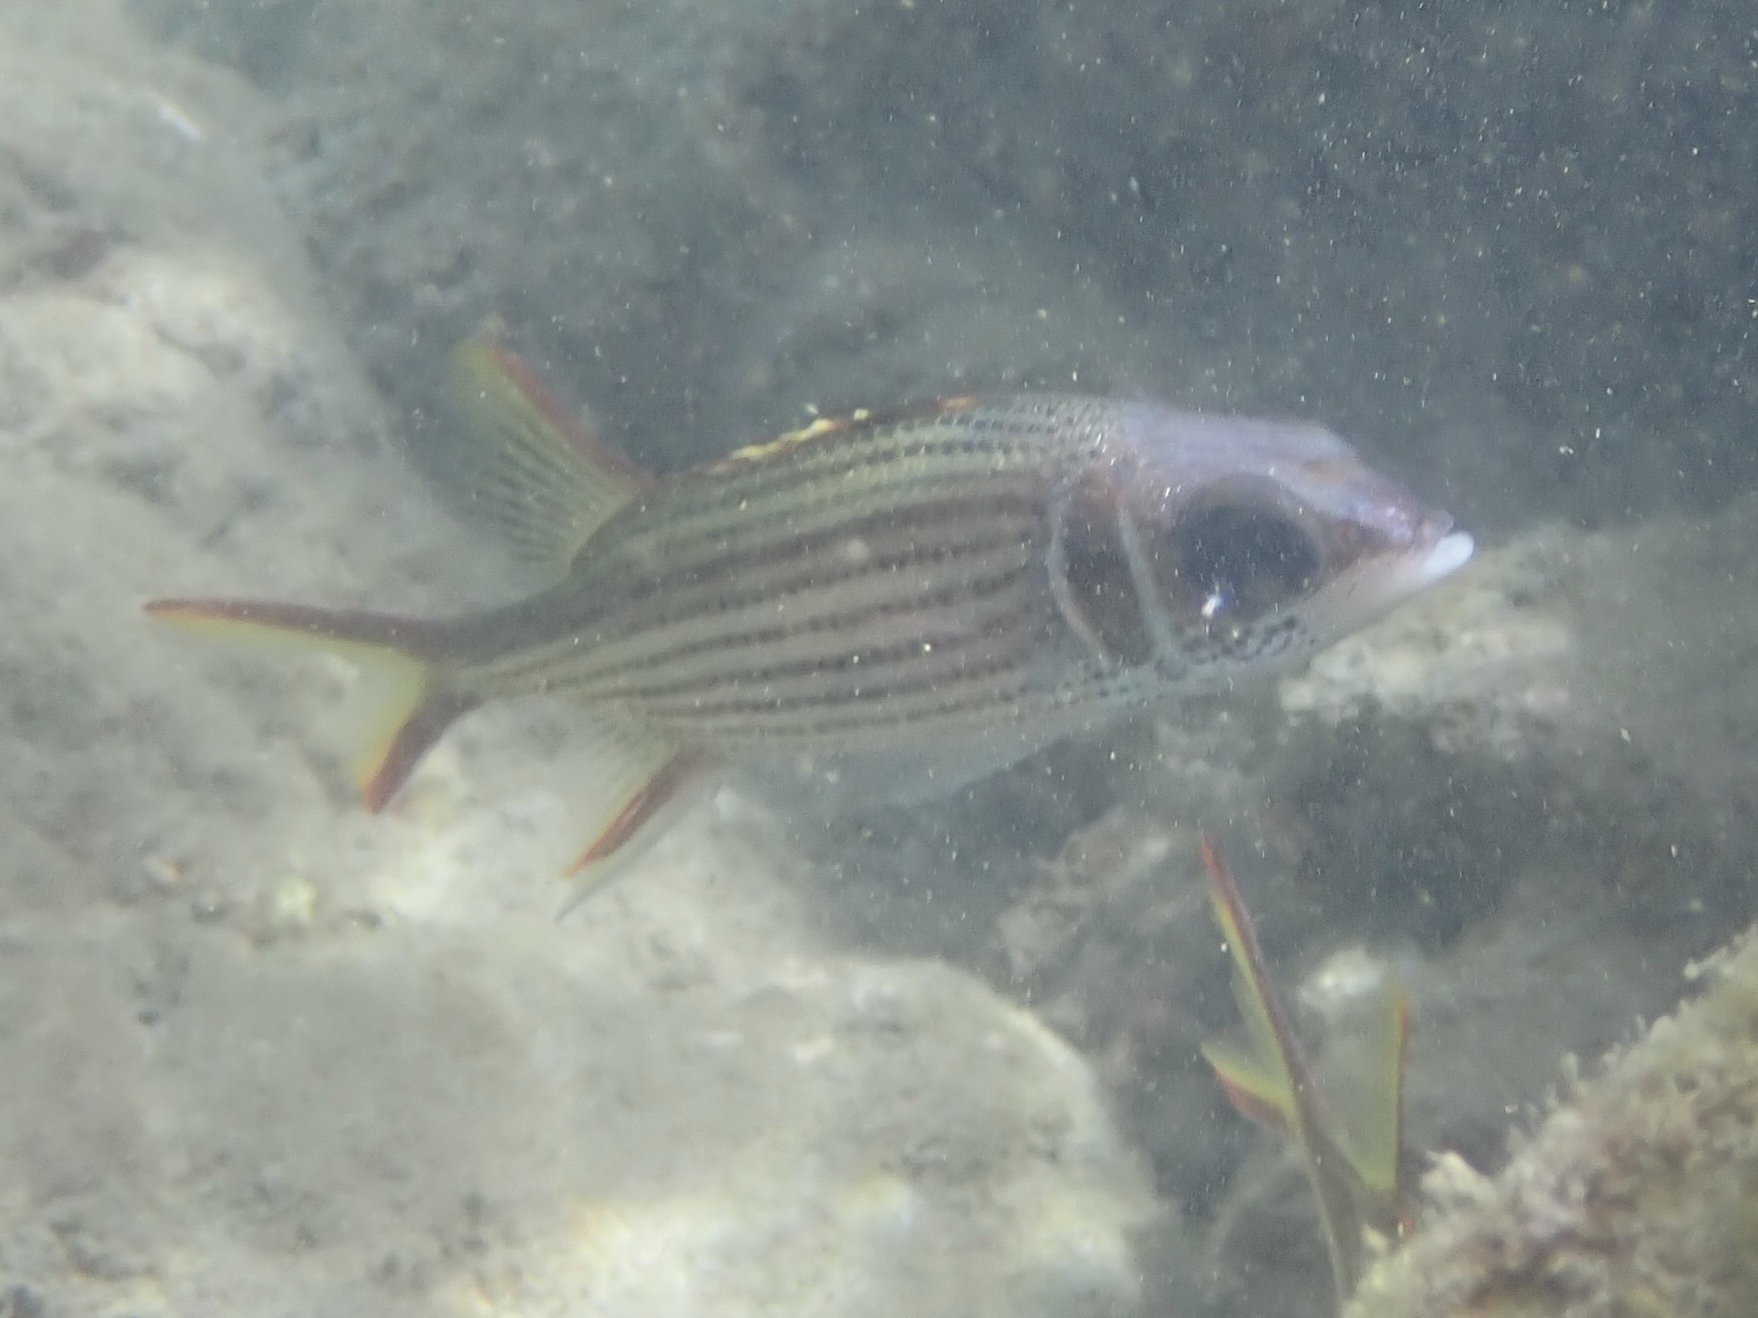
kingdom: Animalia
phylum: Chordata
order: Beryciformes
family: Holocentridae
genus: Neoniphon
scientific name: Neoniphon sammara
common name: Sammara squirrelfish
